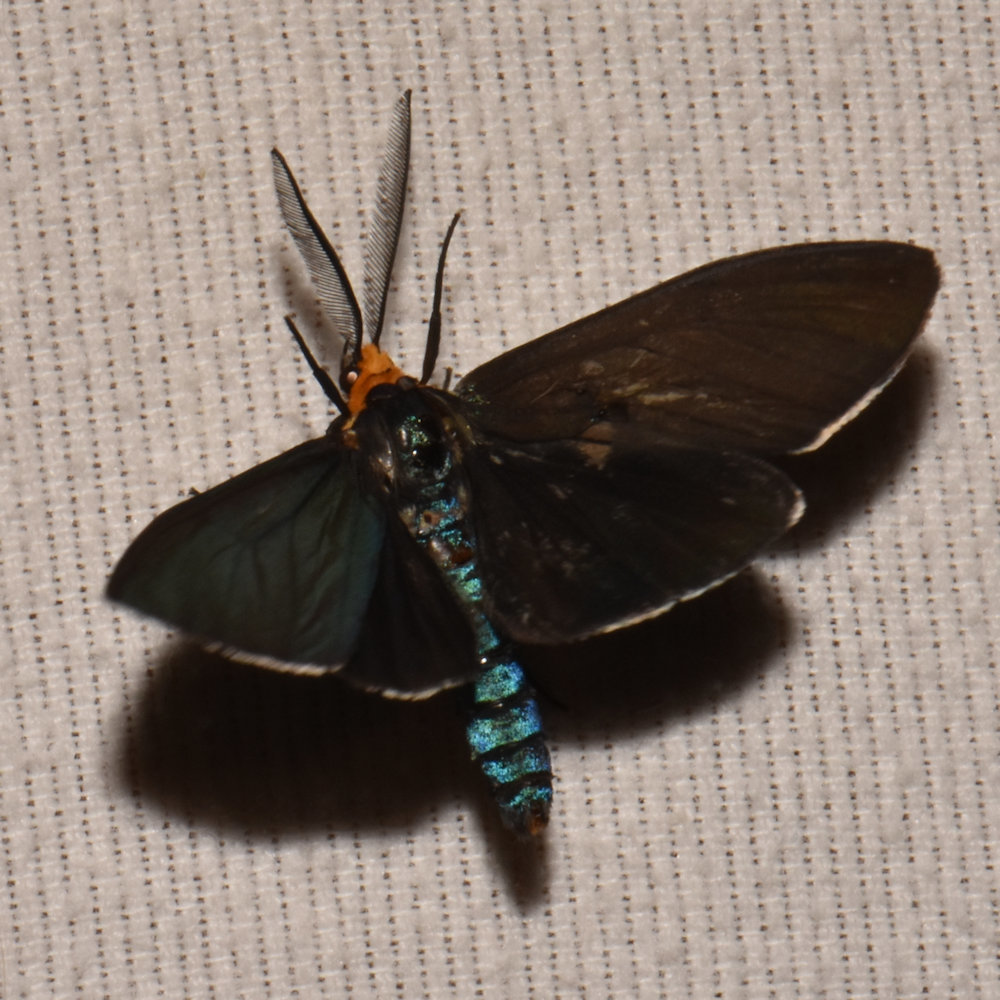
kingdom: Animalia
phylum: Arthropoda
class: Insecta
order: Lepidoptera
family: Erebidae
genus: Ctenucha
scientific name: Ctenucha virginica
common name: Virginia ctenucha moth
